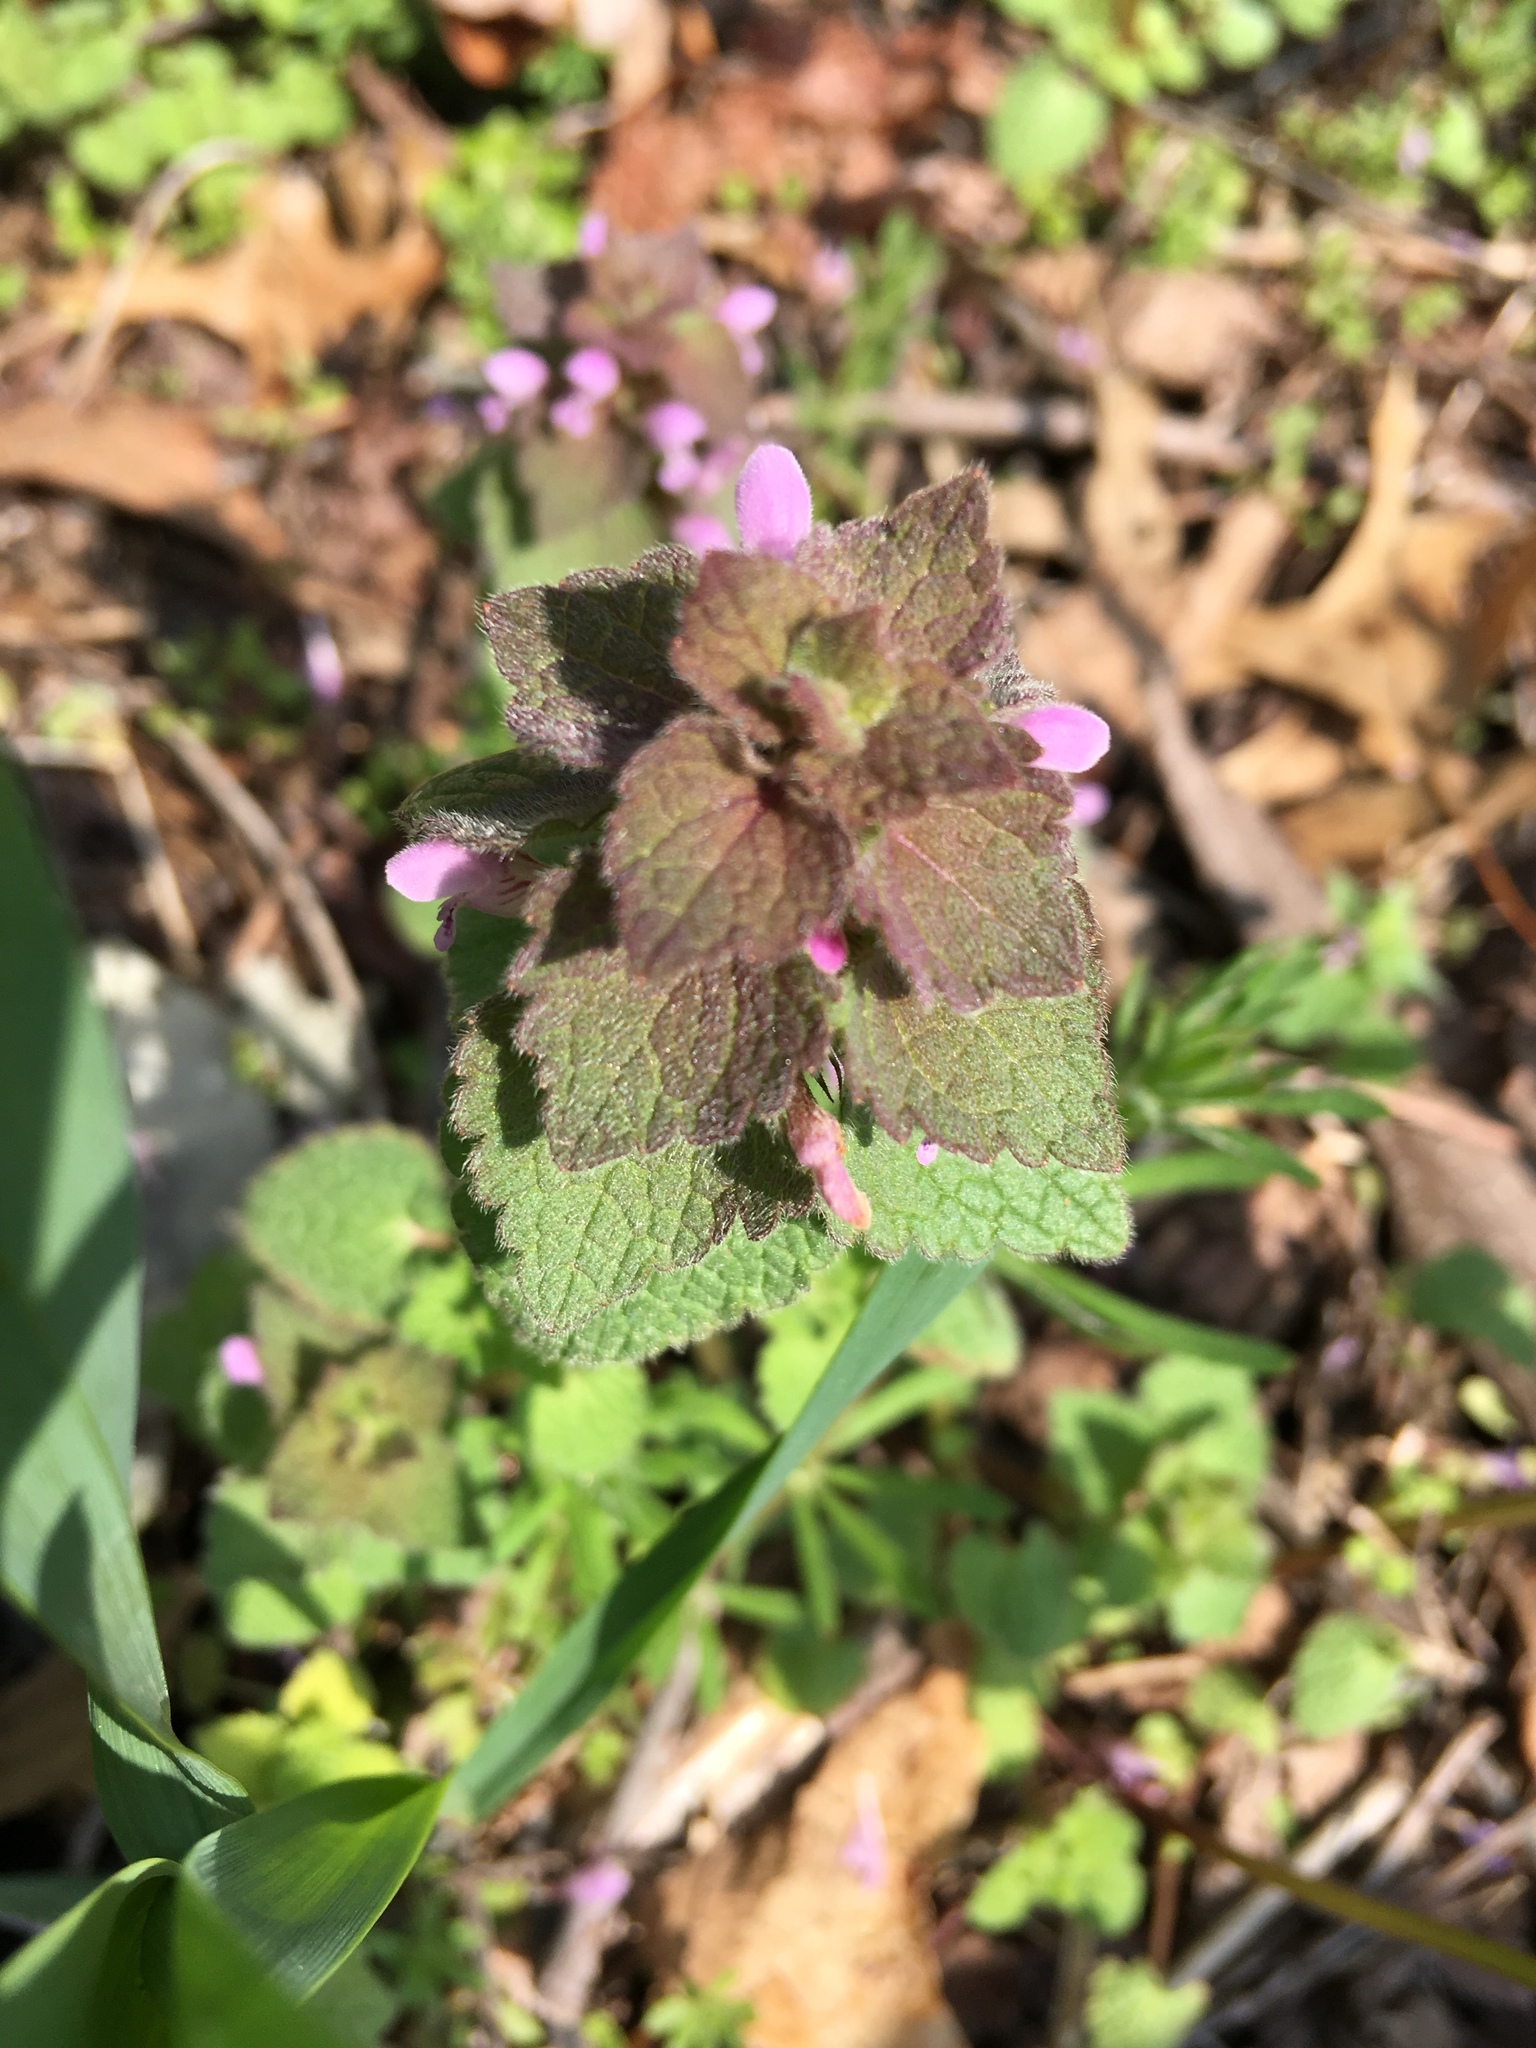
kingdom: Plantae
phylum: Tracheophyta
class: Magnoliopsida
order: Lamiales
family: Lamiaceae
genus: Lamium
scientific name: Lamium purpureum
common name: Red dead-nettle
